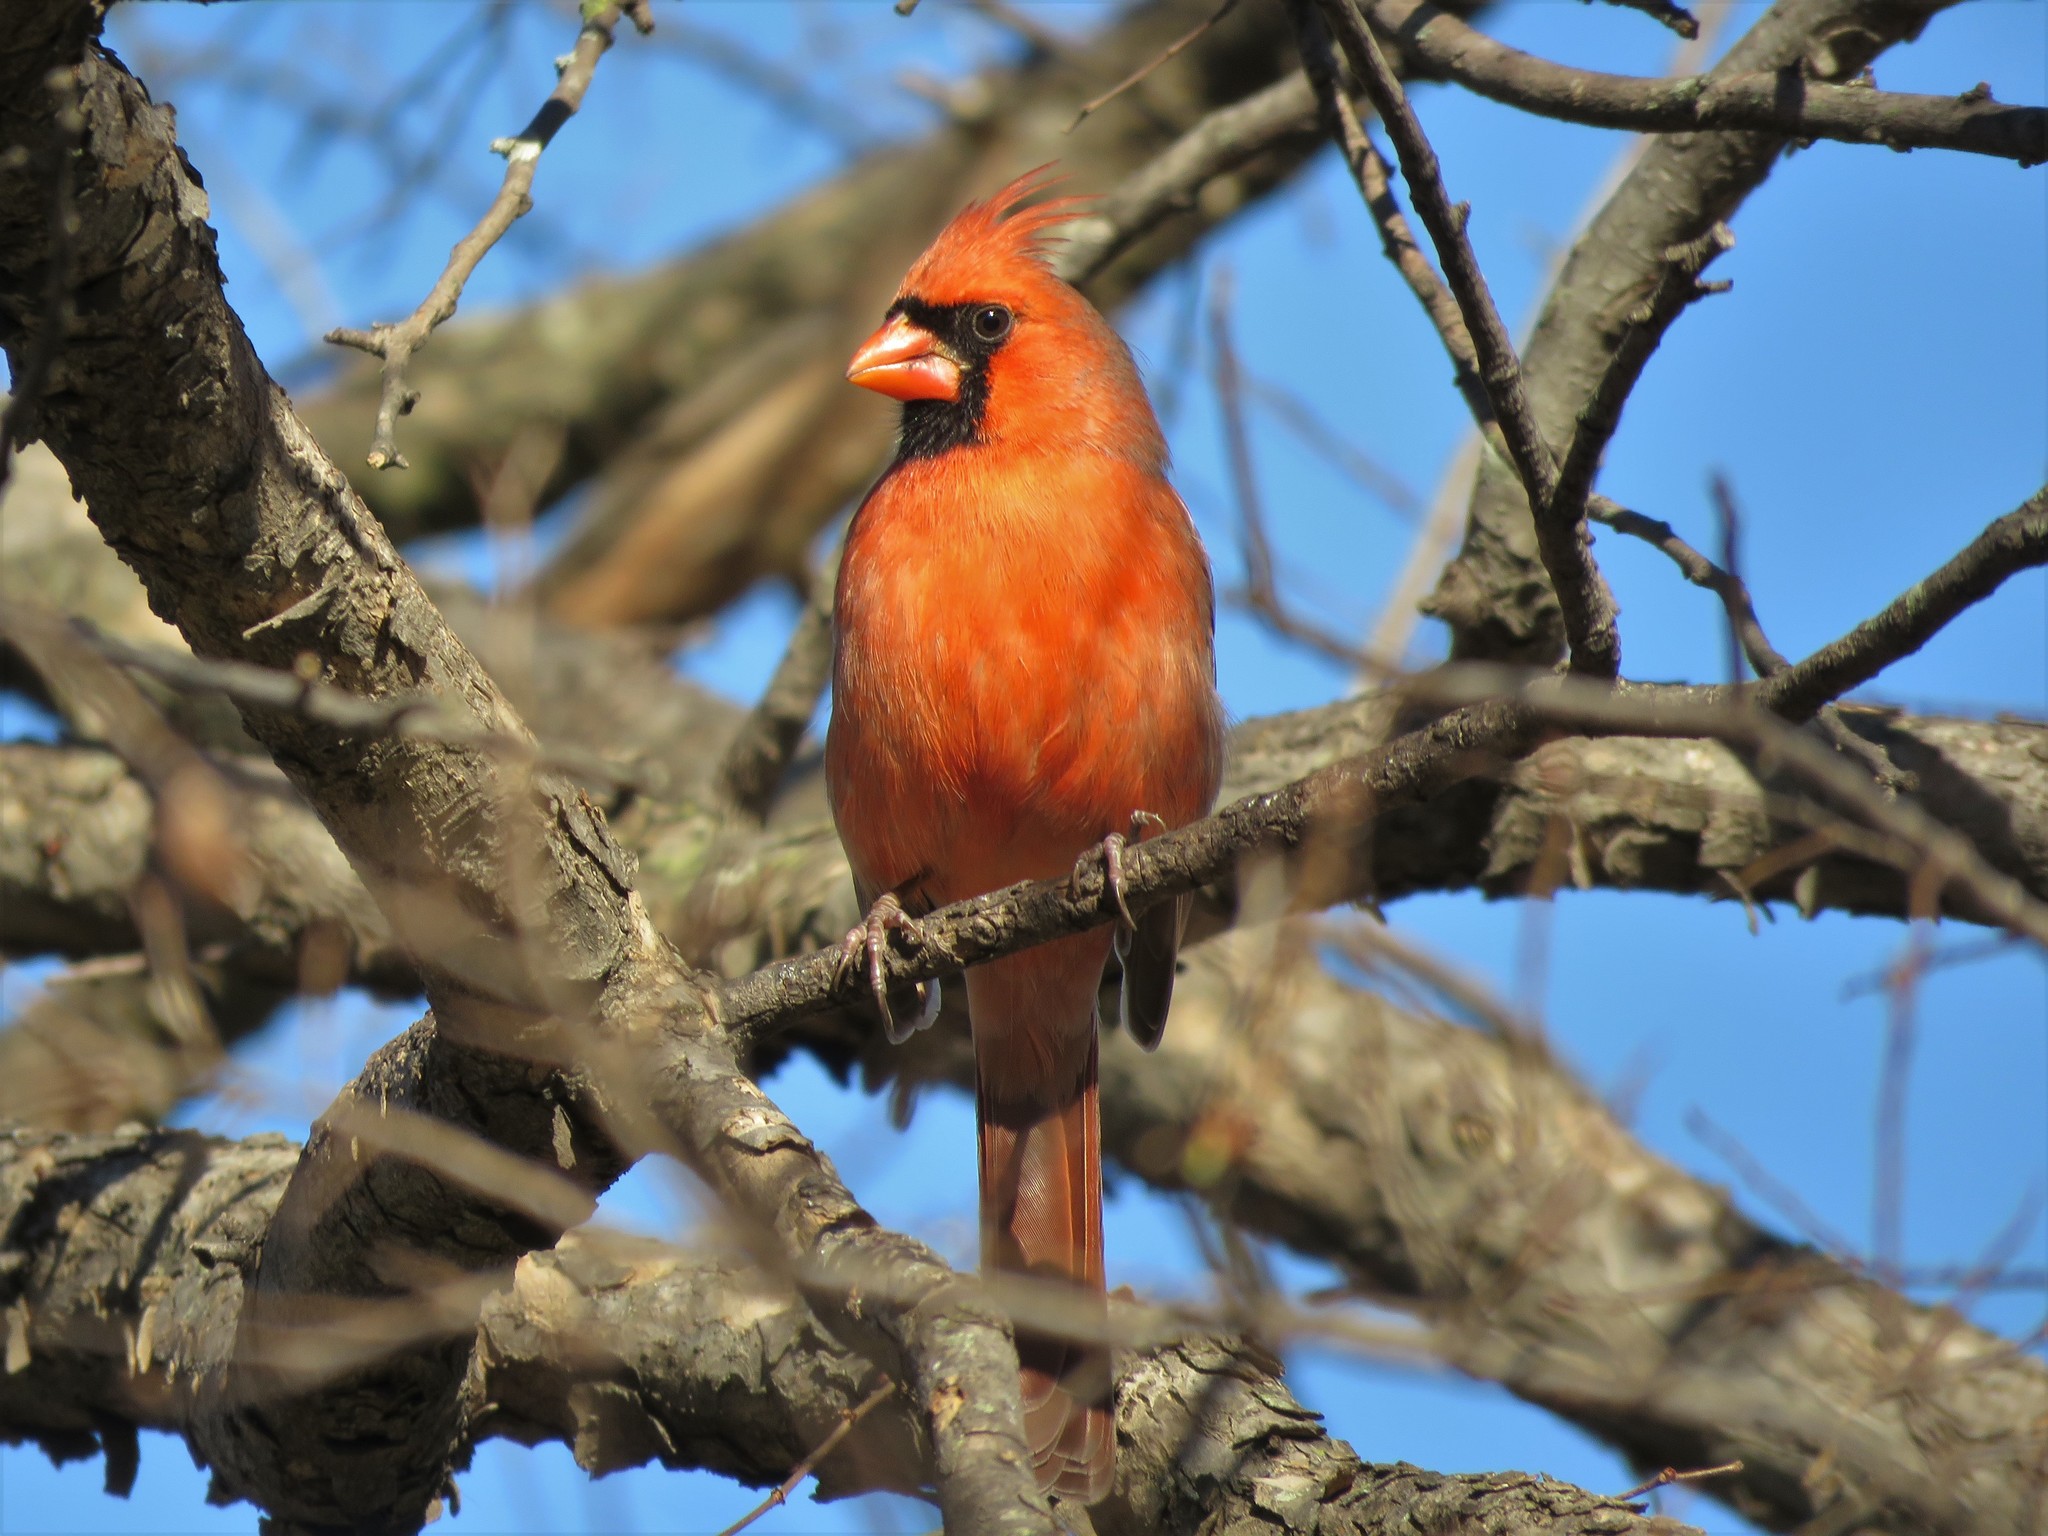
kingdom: Animalia
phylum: Chordata
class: Aves
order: Passeriformes
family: Cardinalidae
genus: Cardinalis
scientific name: Cardinalis cardinalis
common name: Northern cardinal
